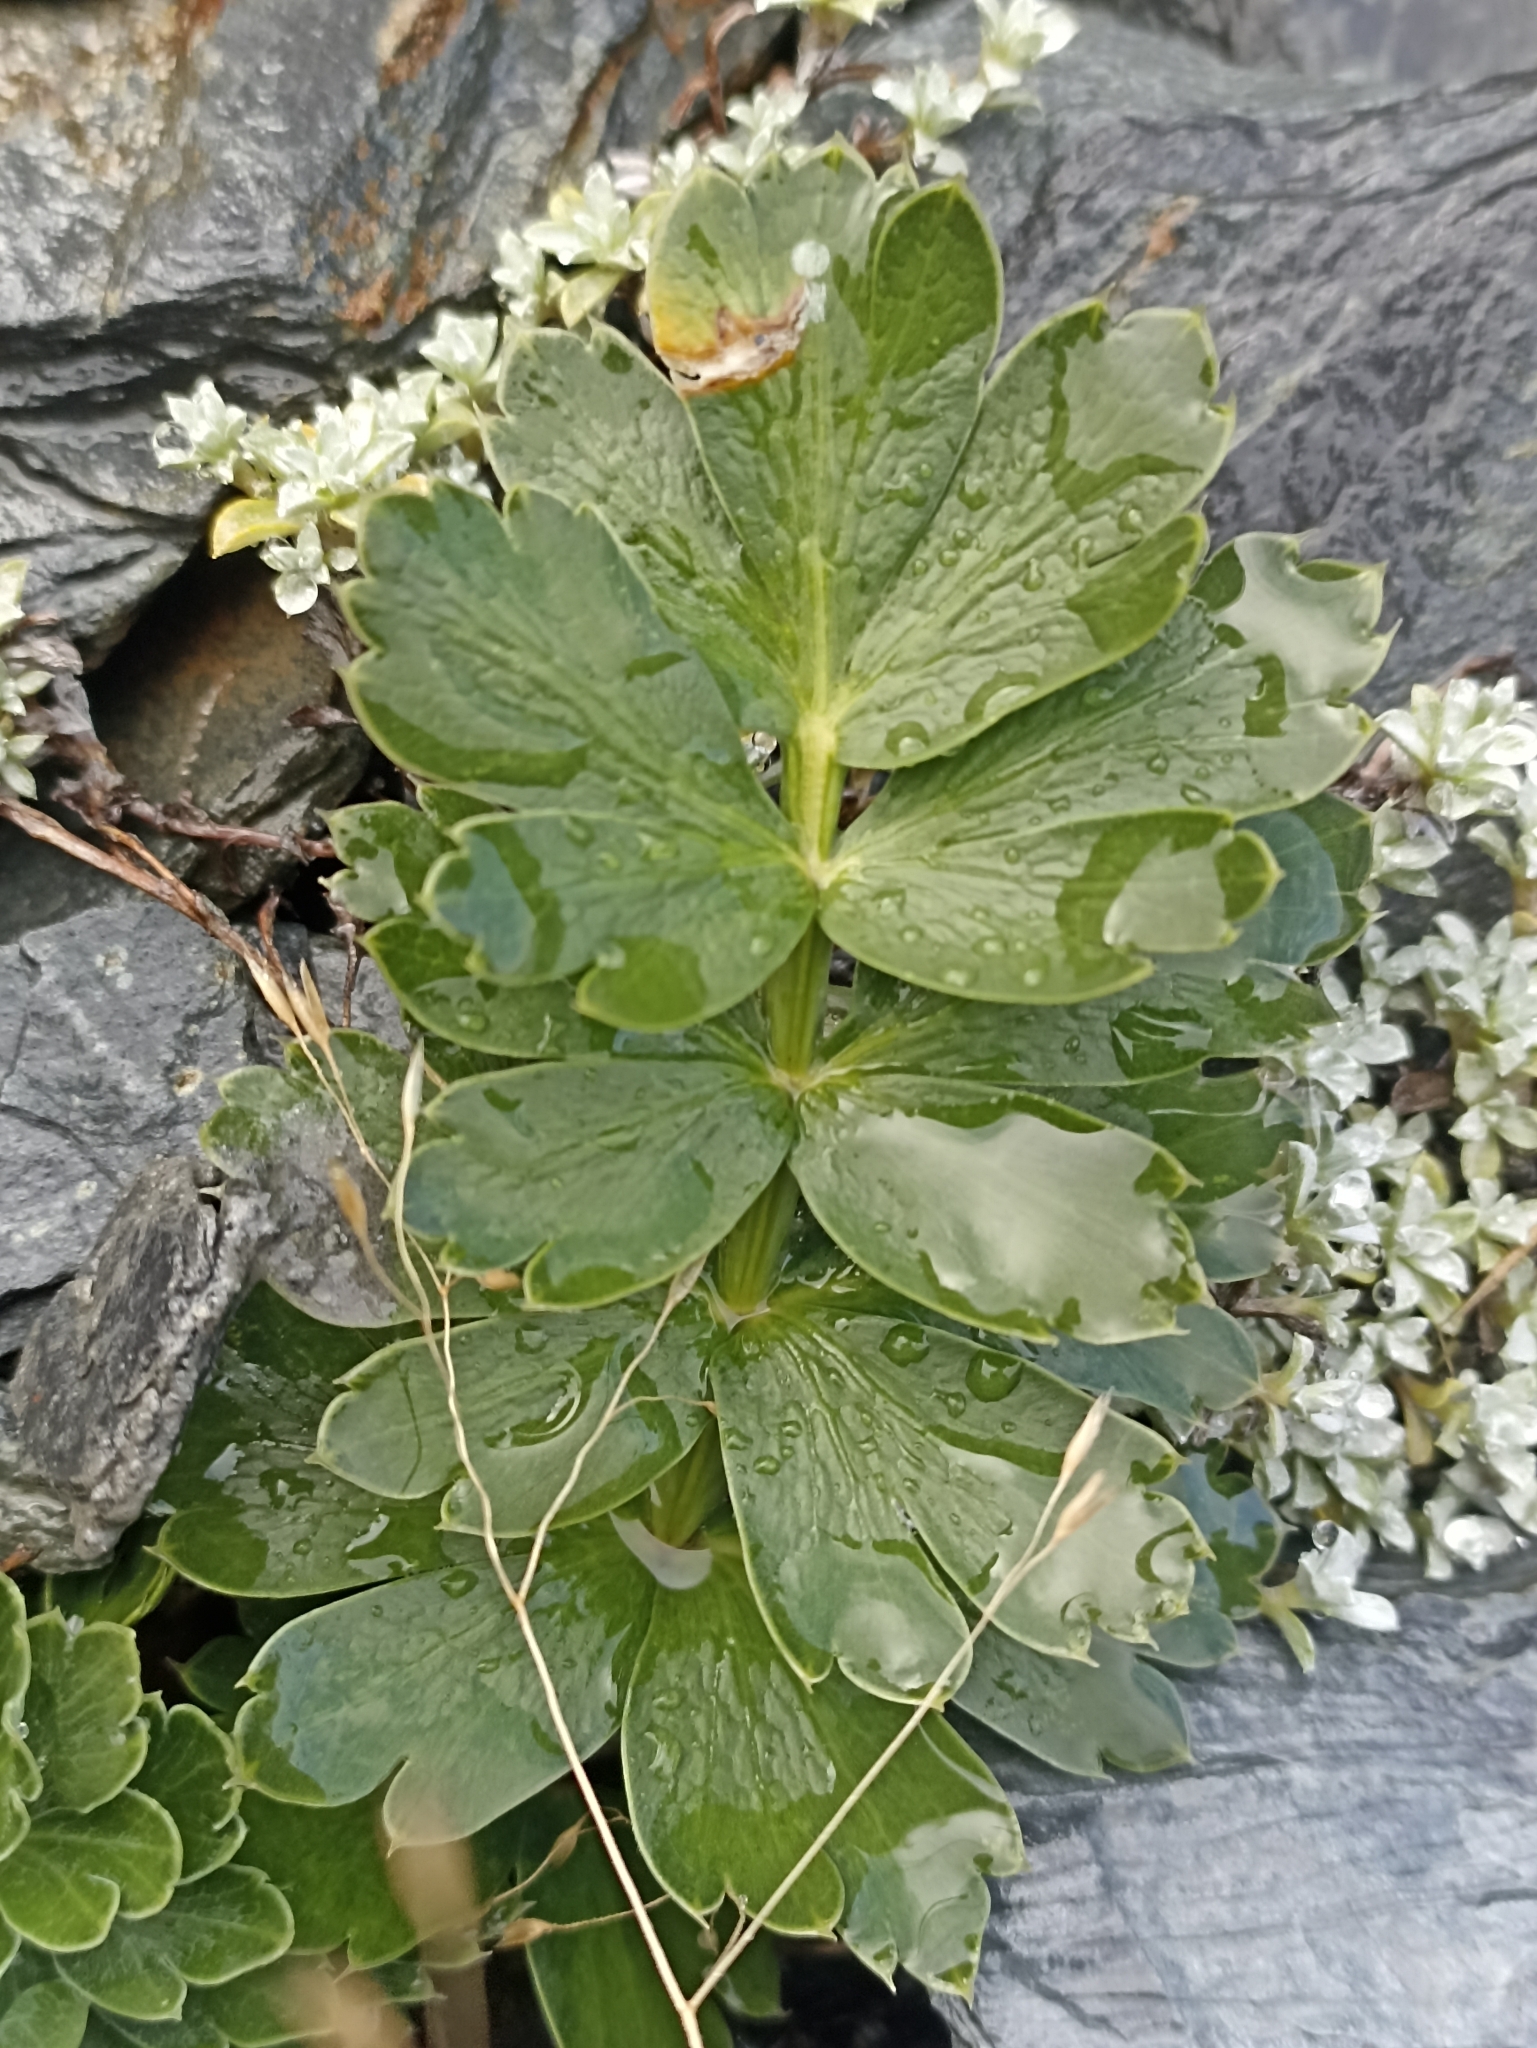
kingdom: Plantae
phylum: Tracheophyta
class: Magnoliopsida
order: Apiales
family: Apiaceae
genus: Anisotome
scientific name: Anisotome pilifera
